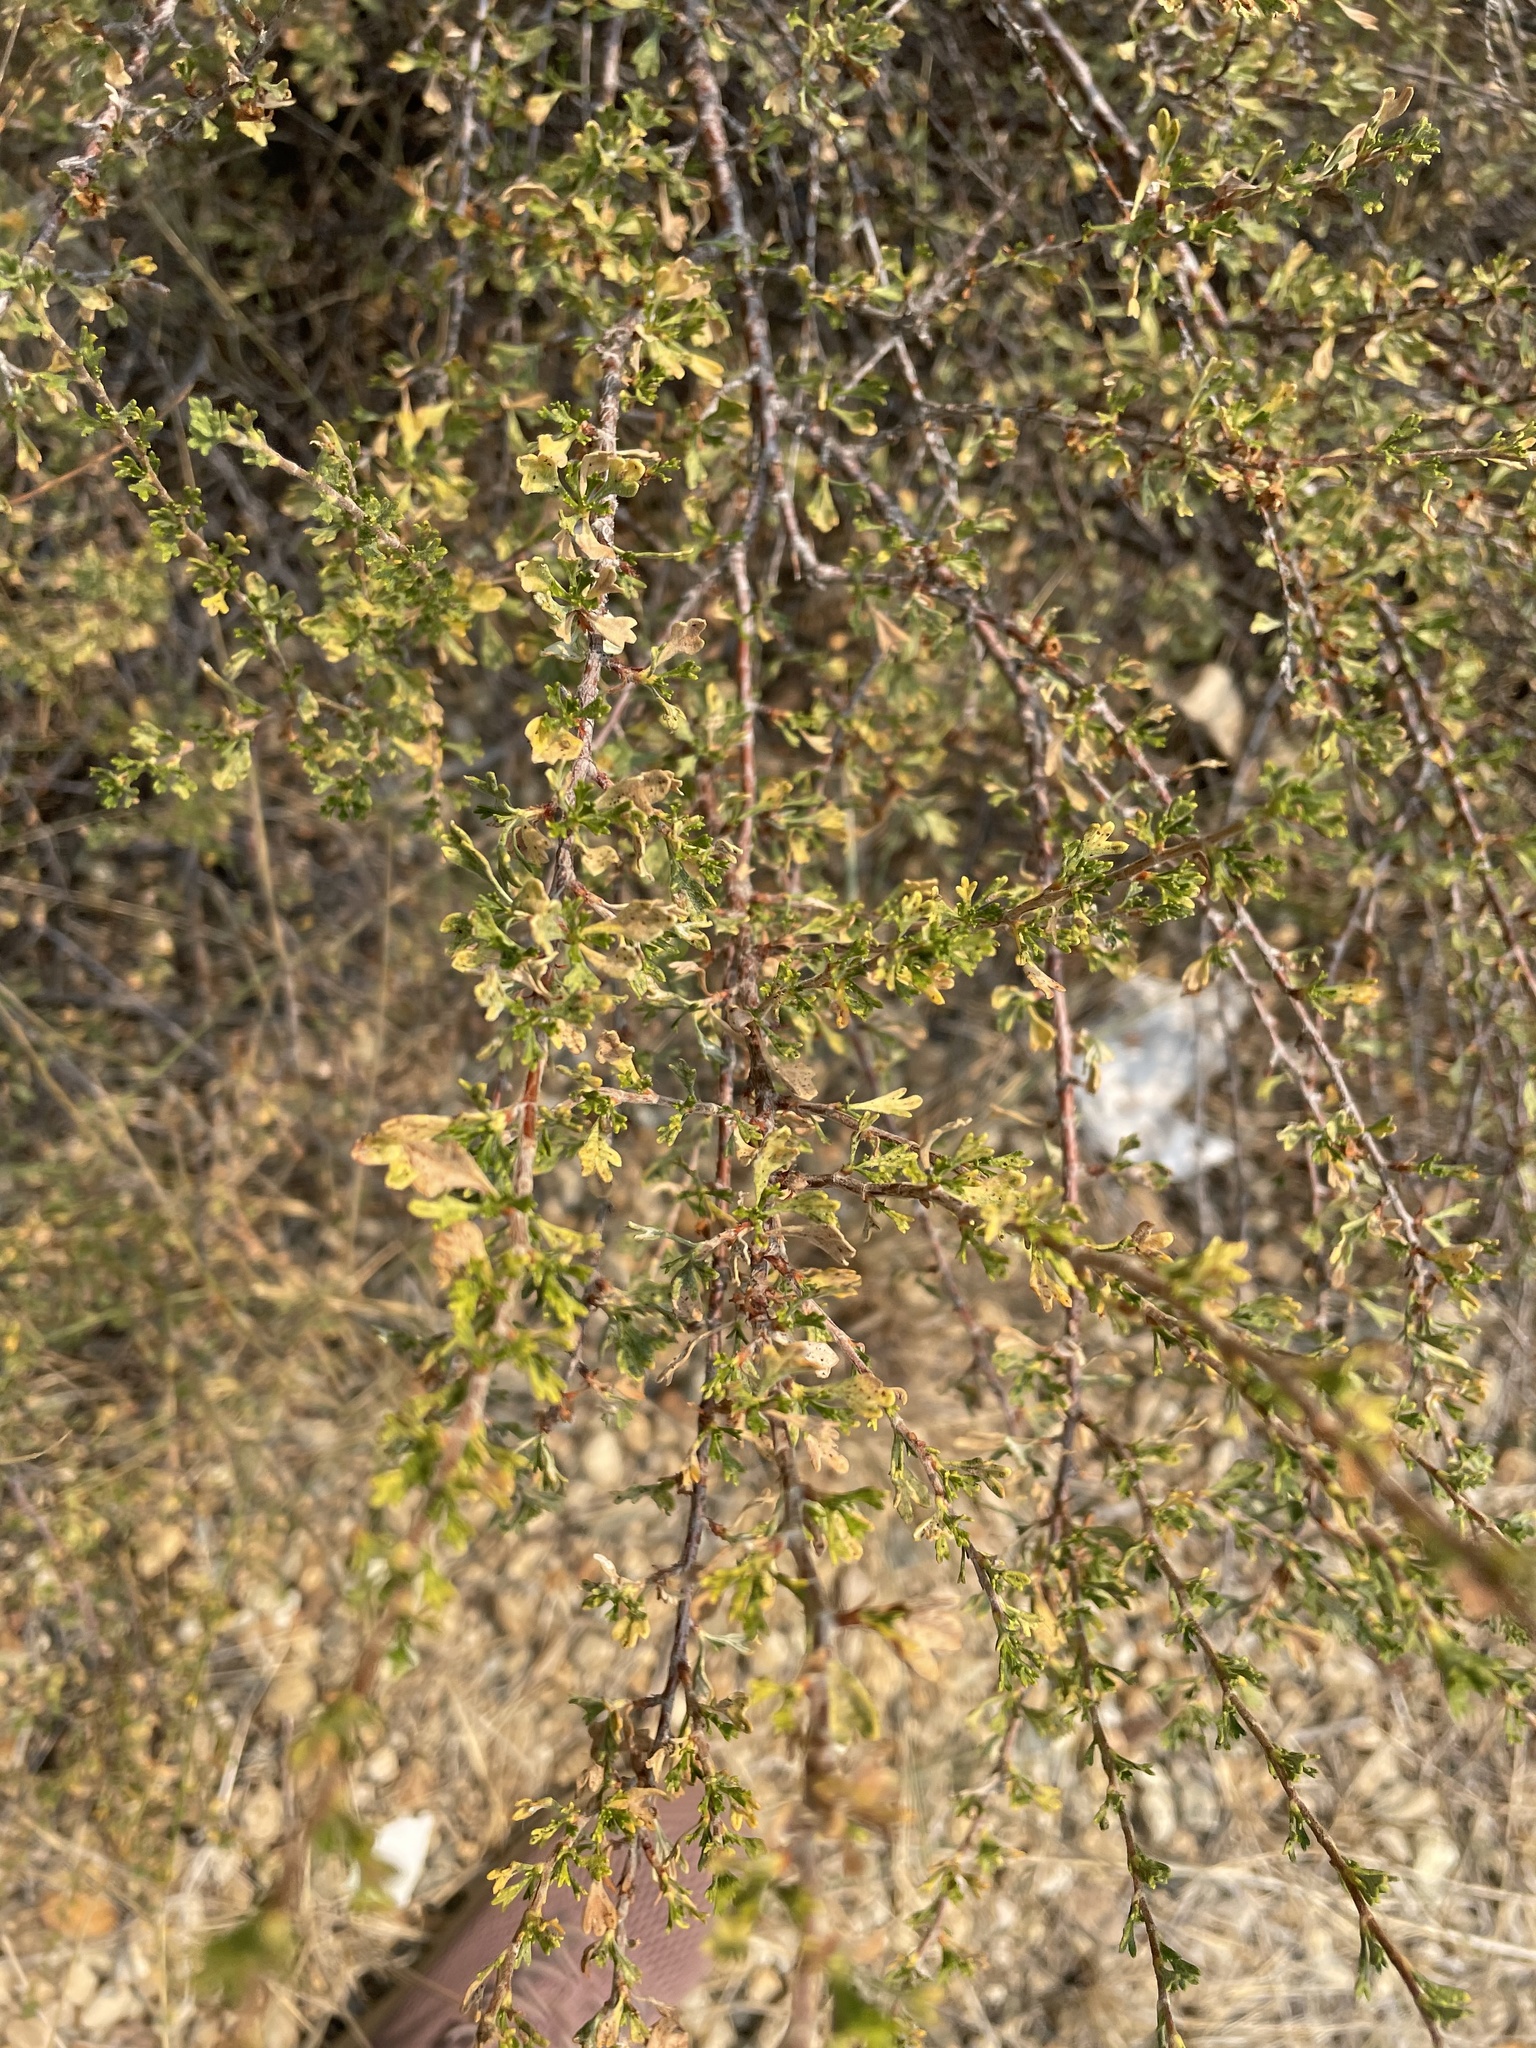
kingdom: Plantae
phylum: Tracheophyta
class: Magnoliopsida
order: Rosales
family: Rosaceae
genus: Purshia
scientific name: Purshia tridentata
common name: Antelope bitterbrush
